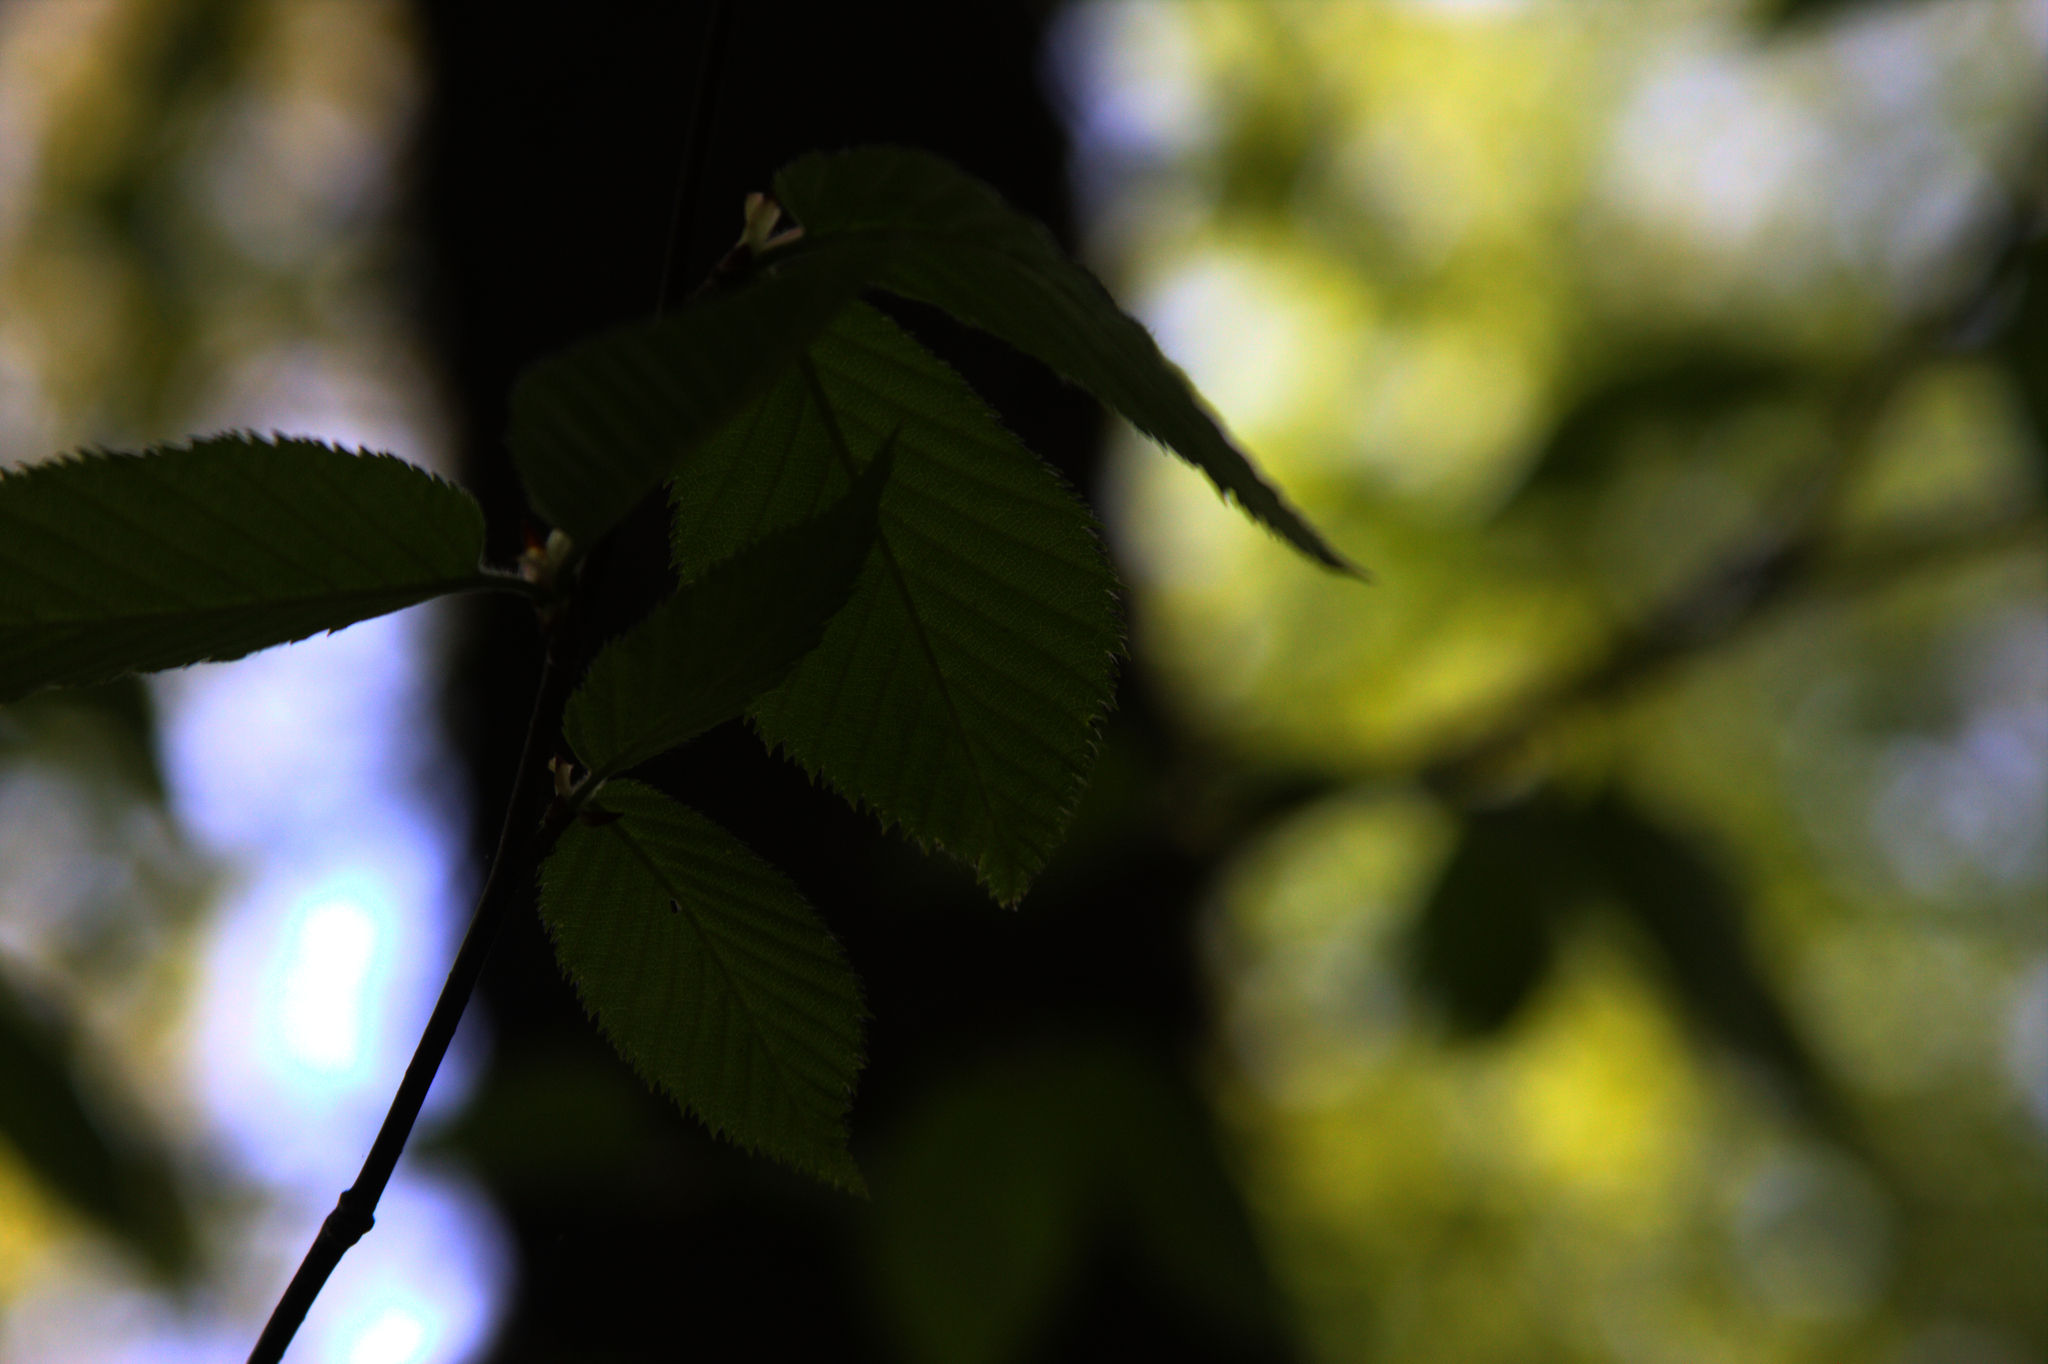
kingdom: Plantae
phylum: Tracheophyta
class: Magnoliopsida
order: Fagales
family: Betulaceae
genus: Betula
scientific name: Betula alleghaniensis
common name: Yellow birch
